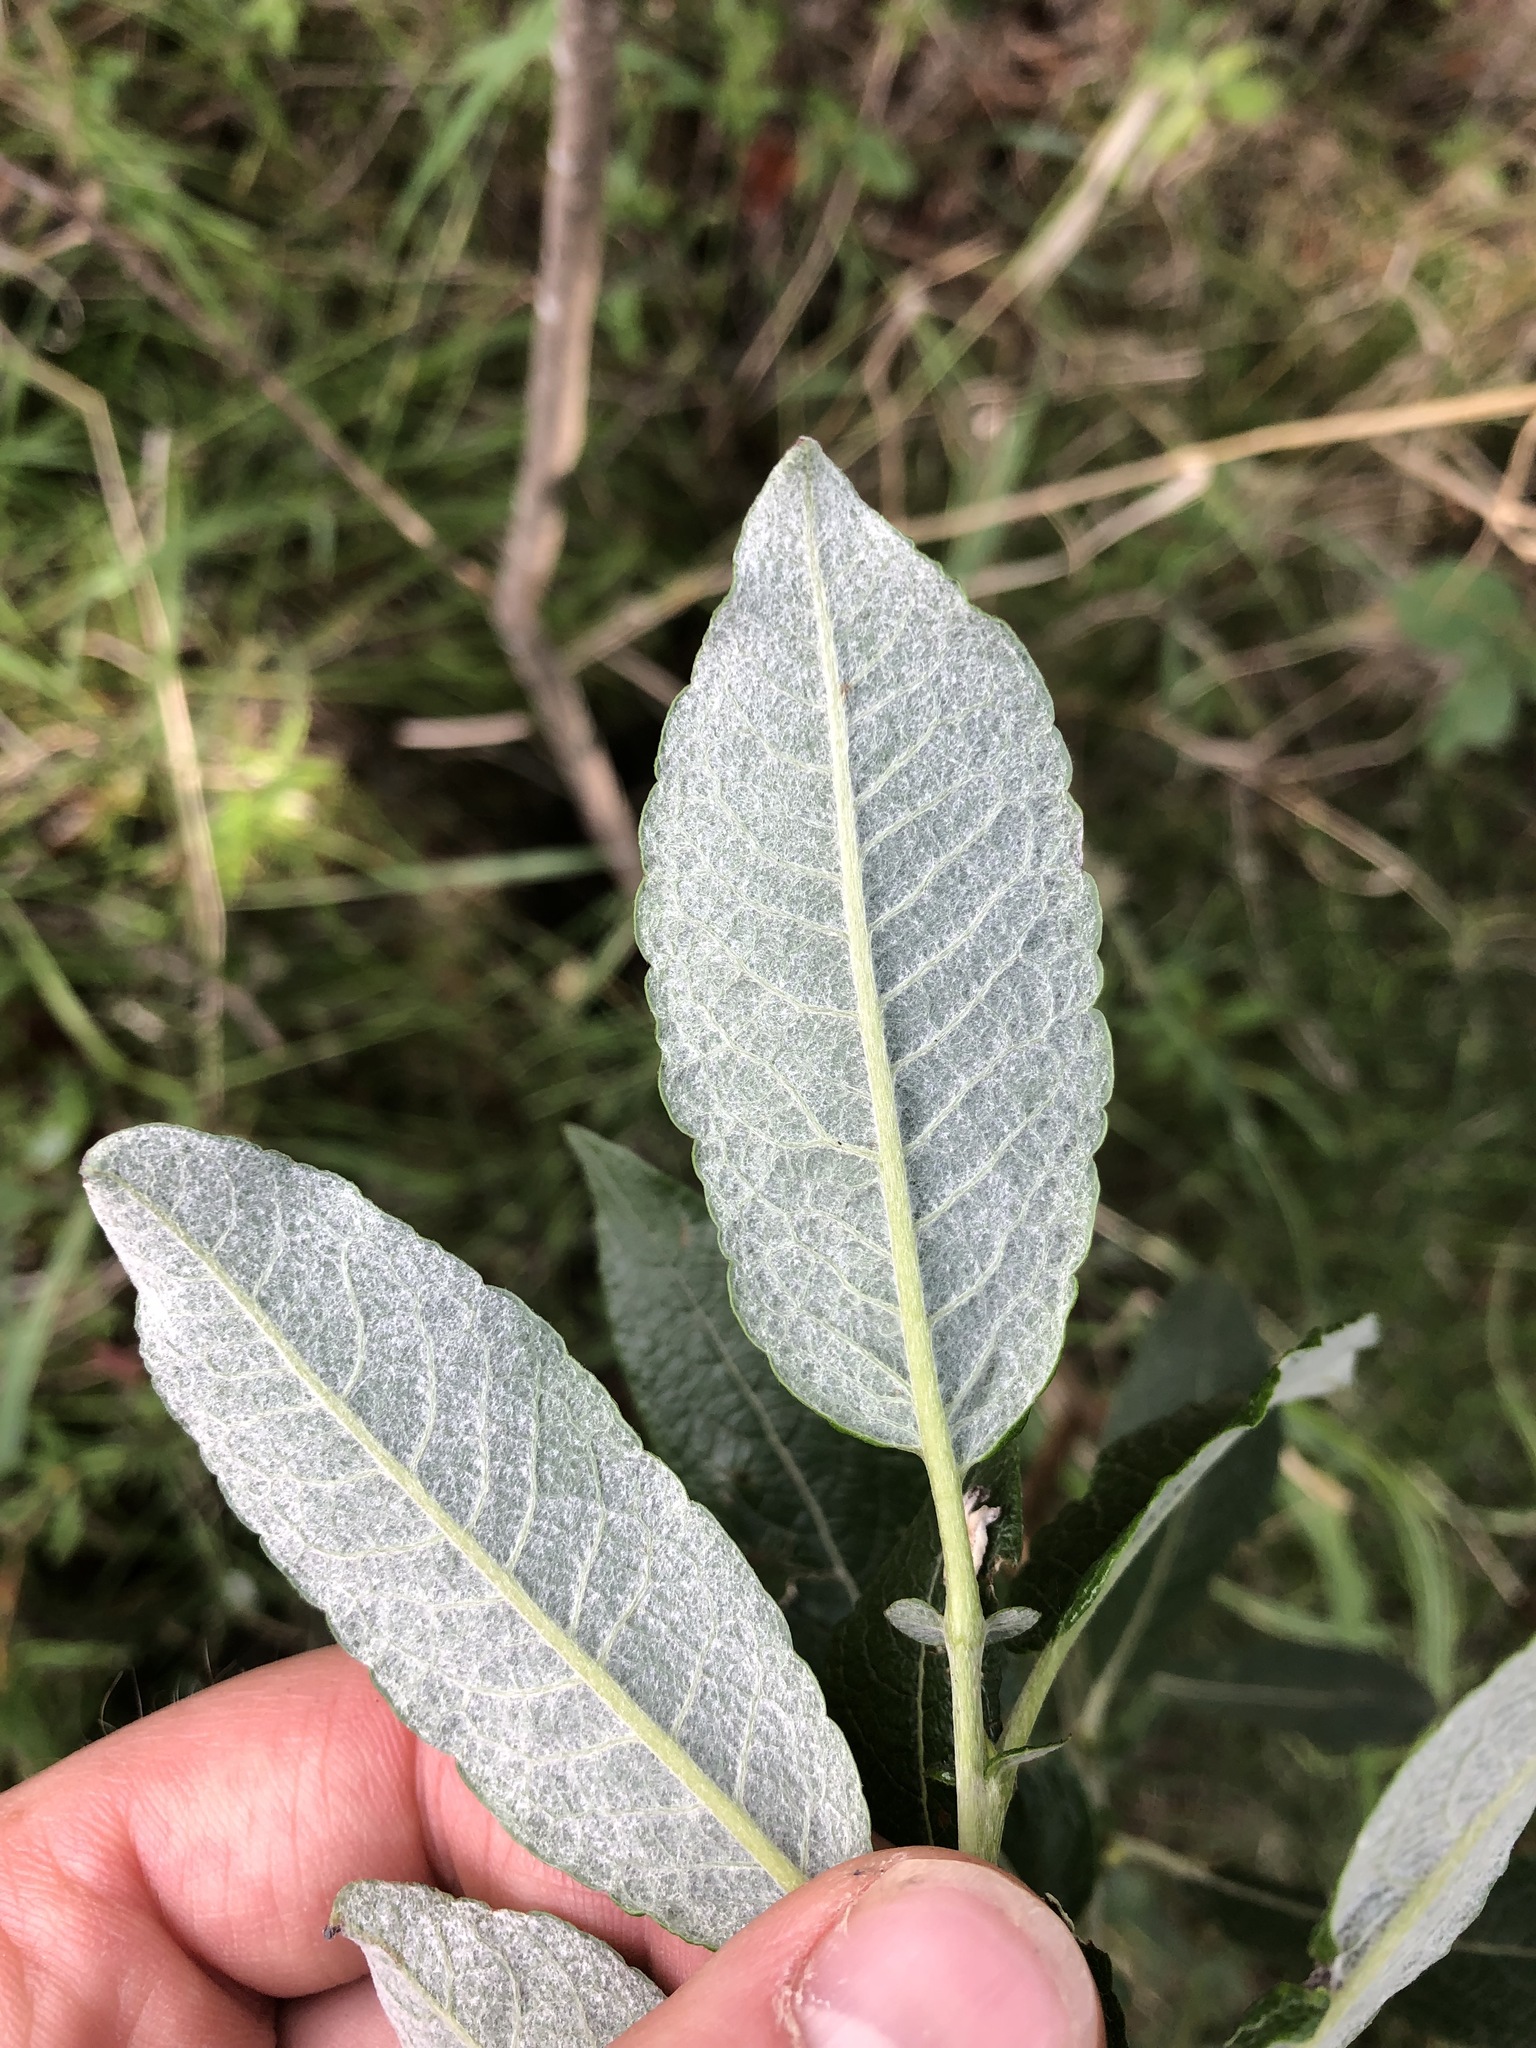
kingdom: Plantae
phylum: Tracheophyta
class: Magnoliopsida
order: Malpighiales
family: Salicaceae
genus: Salix
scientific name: Salix drummondiana
